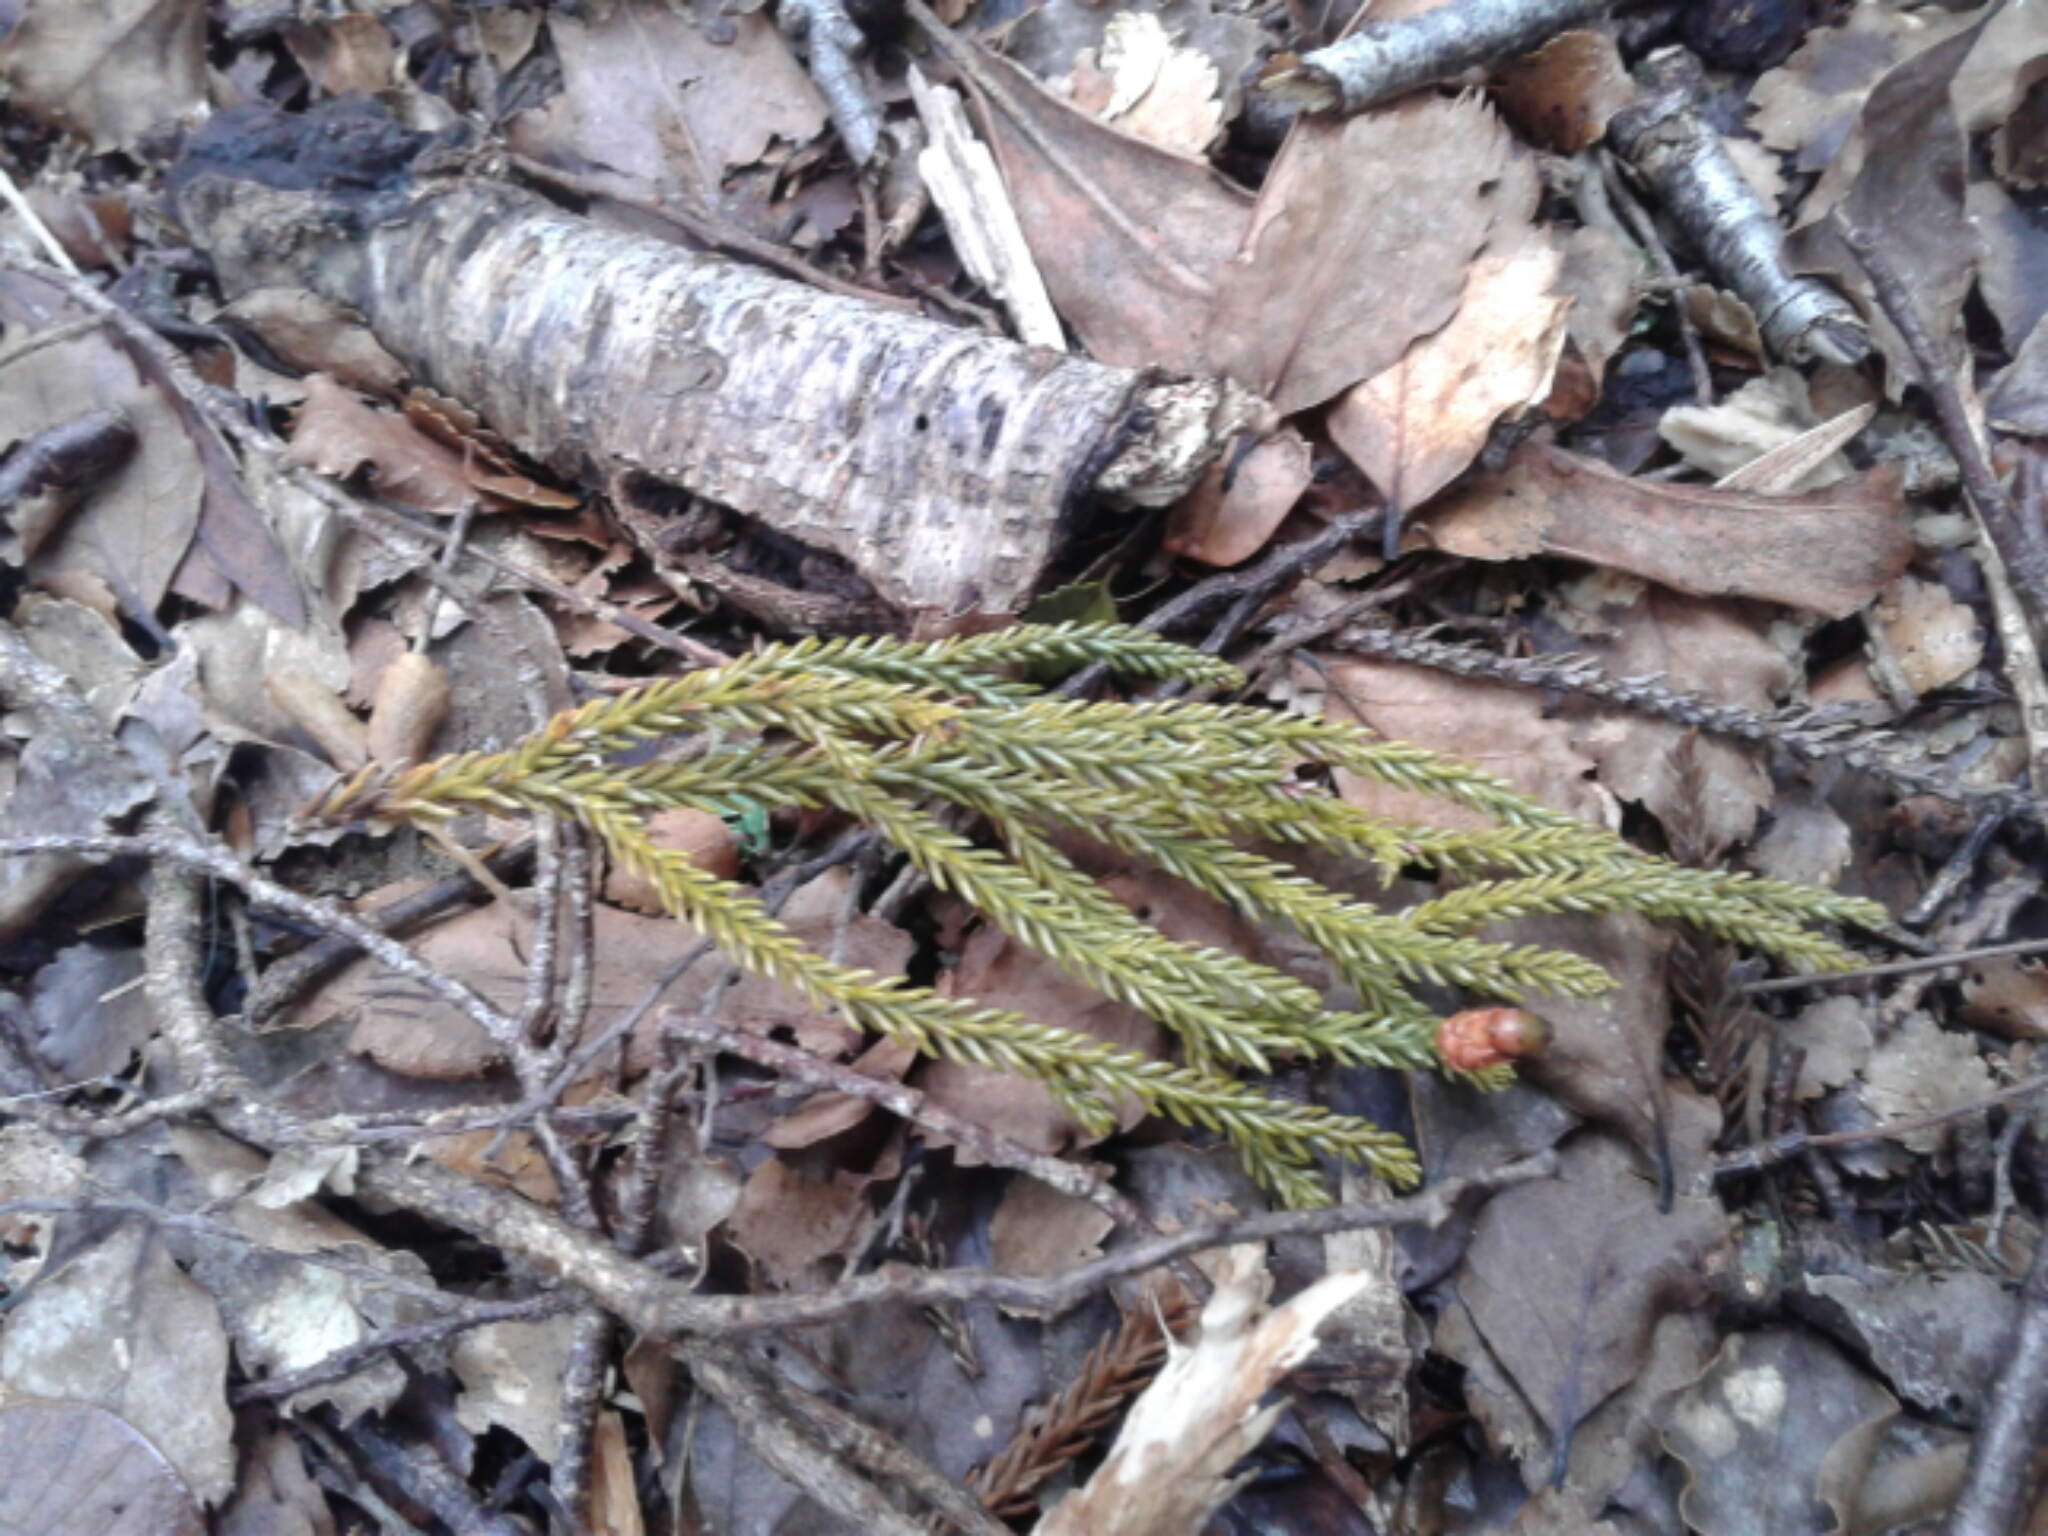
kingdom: Plantae
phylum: Tracheophyta
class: Pinopsida
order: Pinales
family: Podocarpaceae
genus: Dacrydium
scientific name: Dacrydium cupressinum
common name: Red pine
